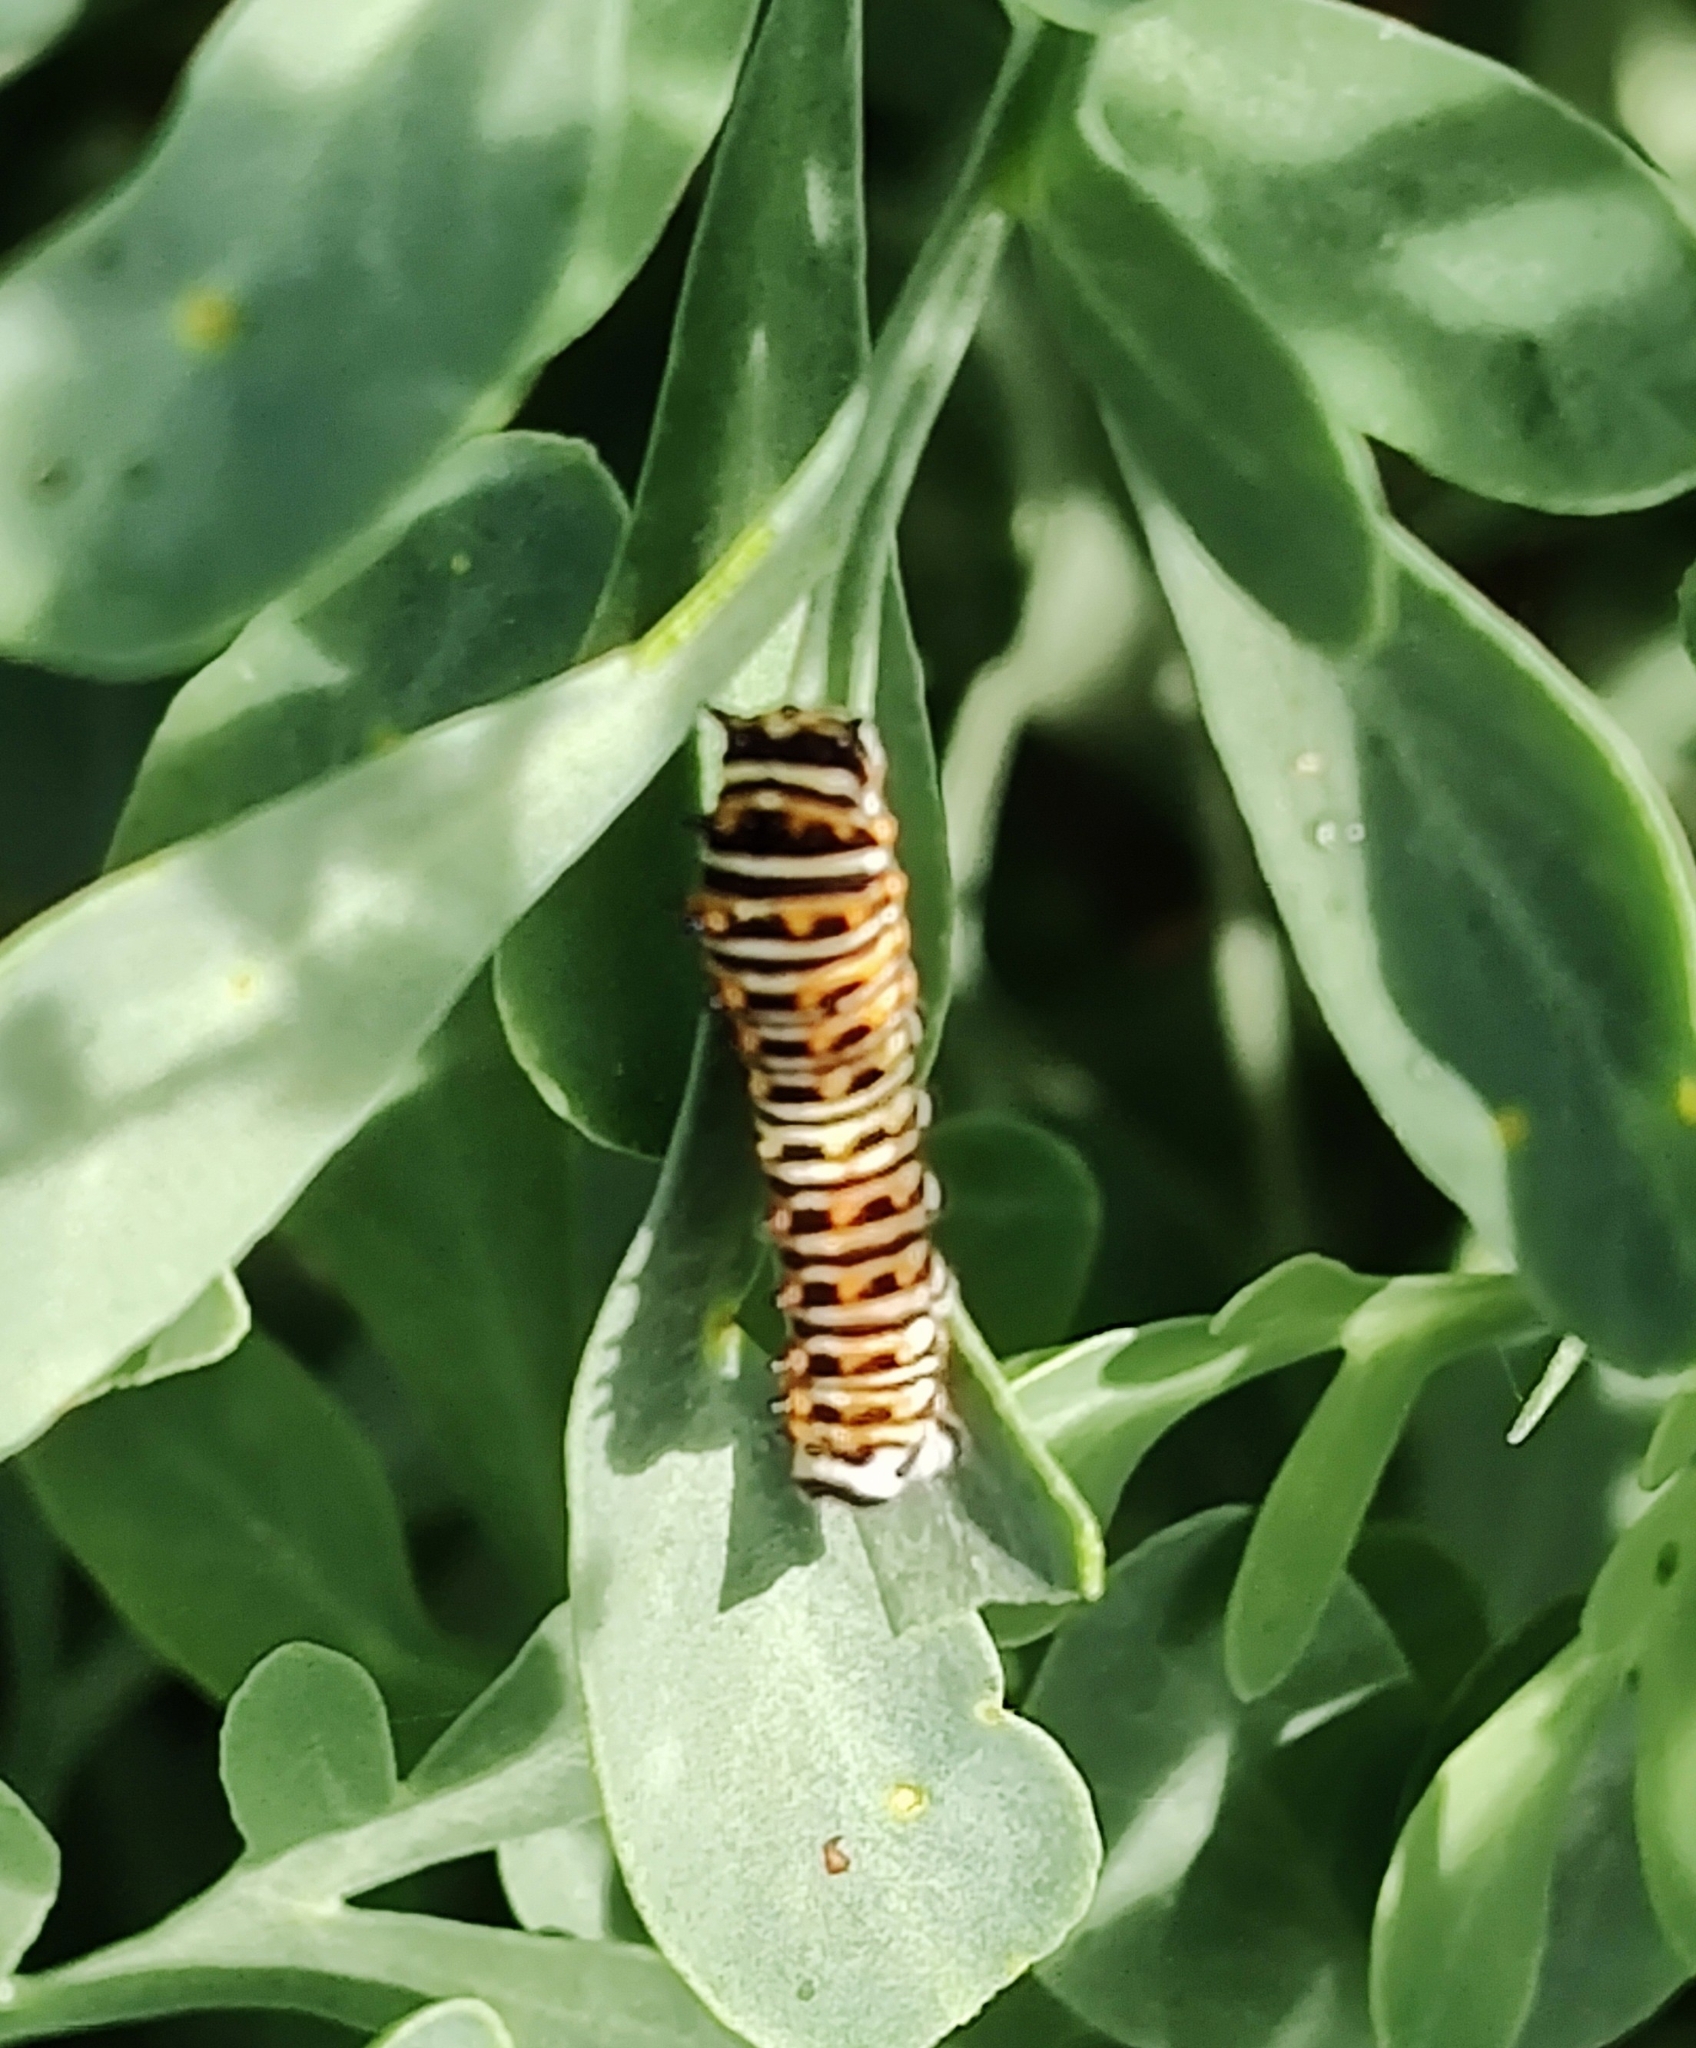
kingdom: Animalia
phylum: Arthropoda
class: Insecta
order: Lepidoptera
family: Papilionidae
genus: Papilio
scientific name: Papilio polyxenes
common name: Black swallowtail
